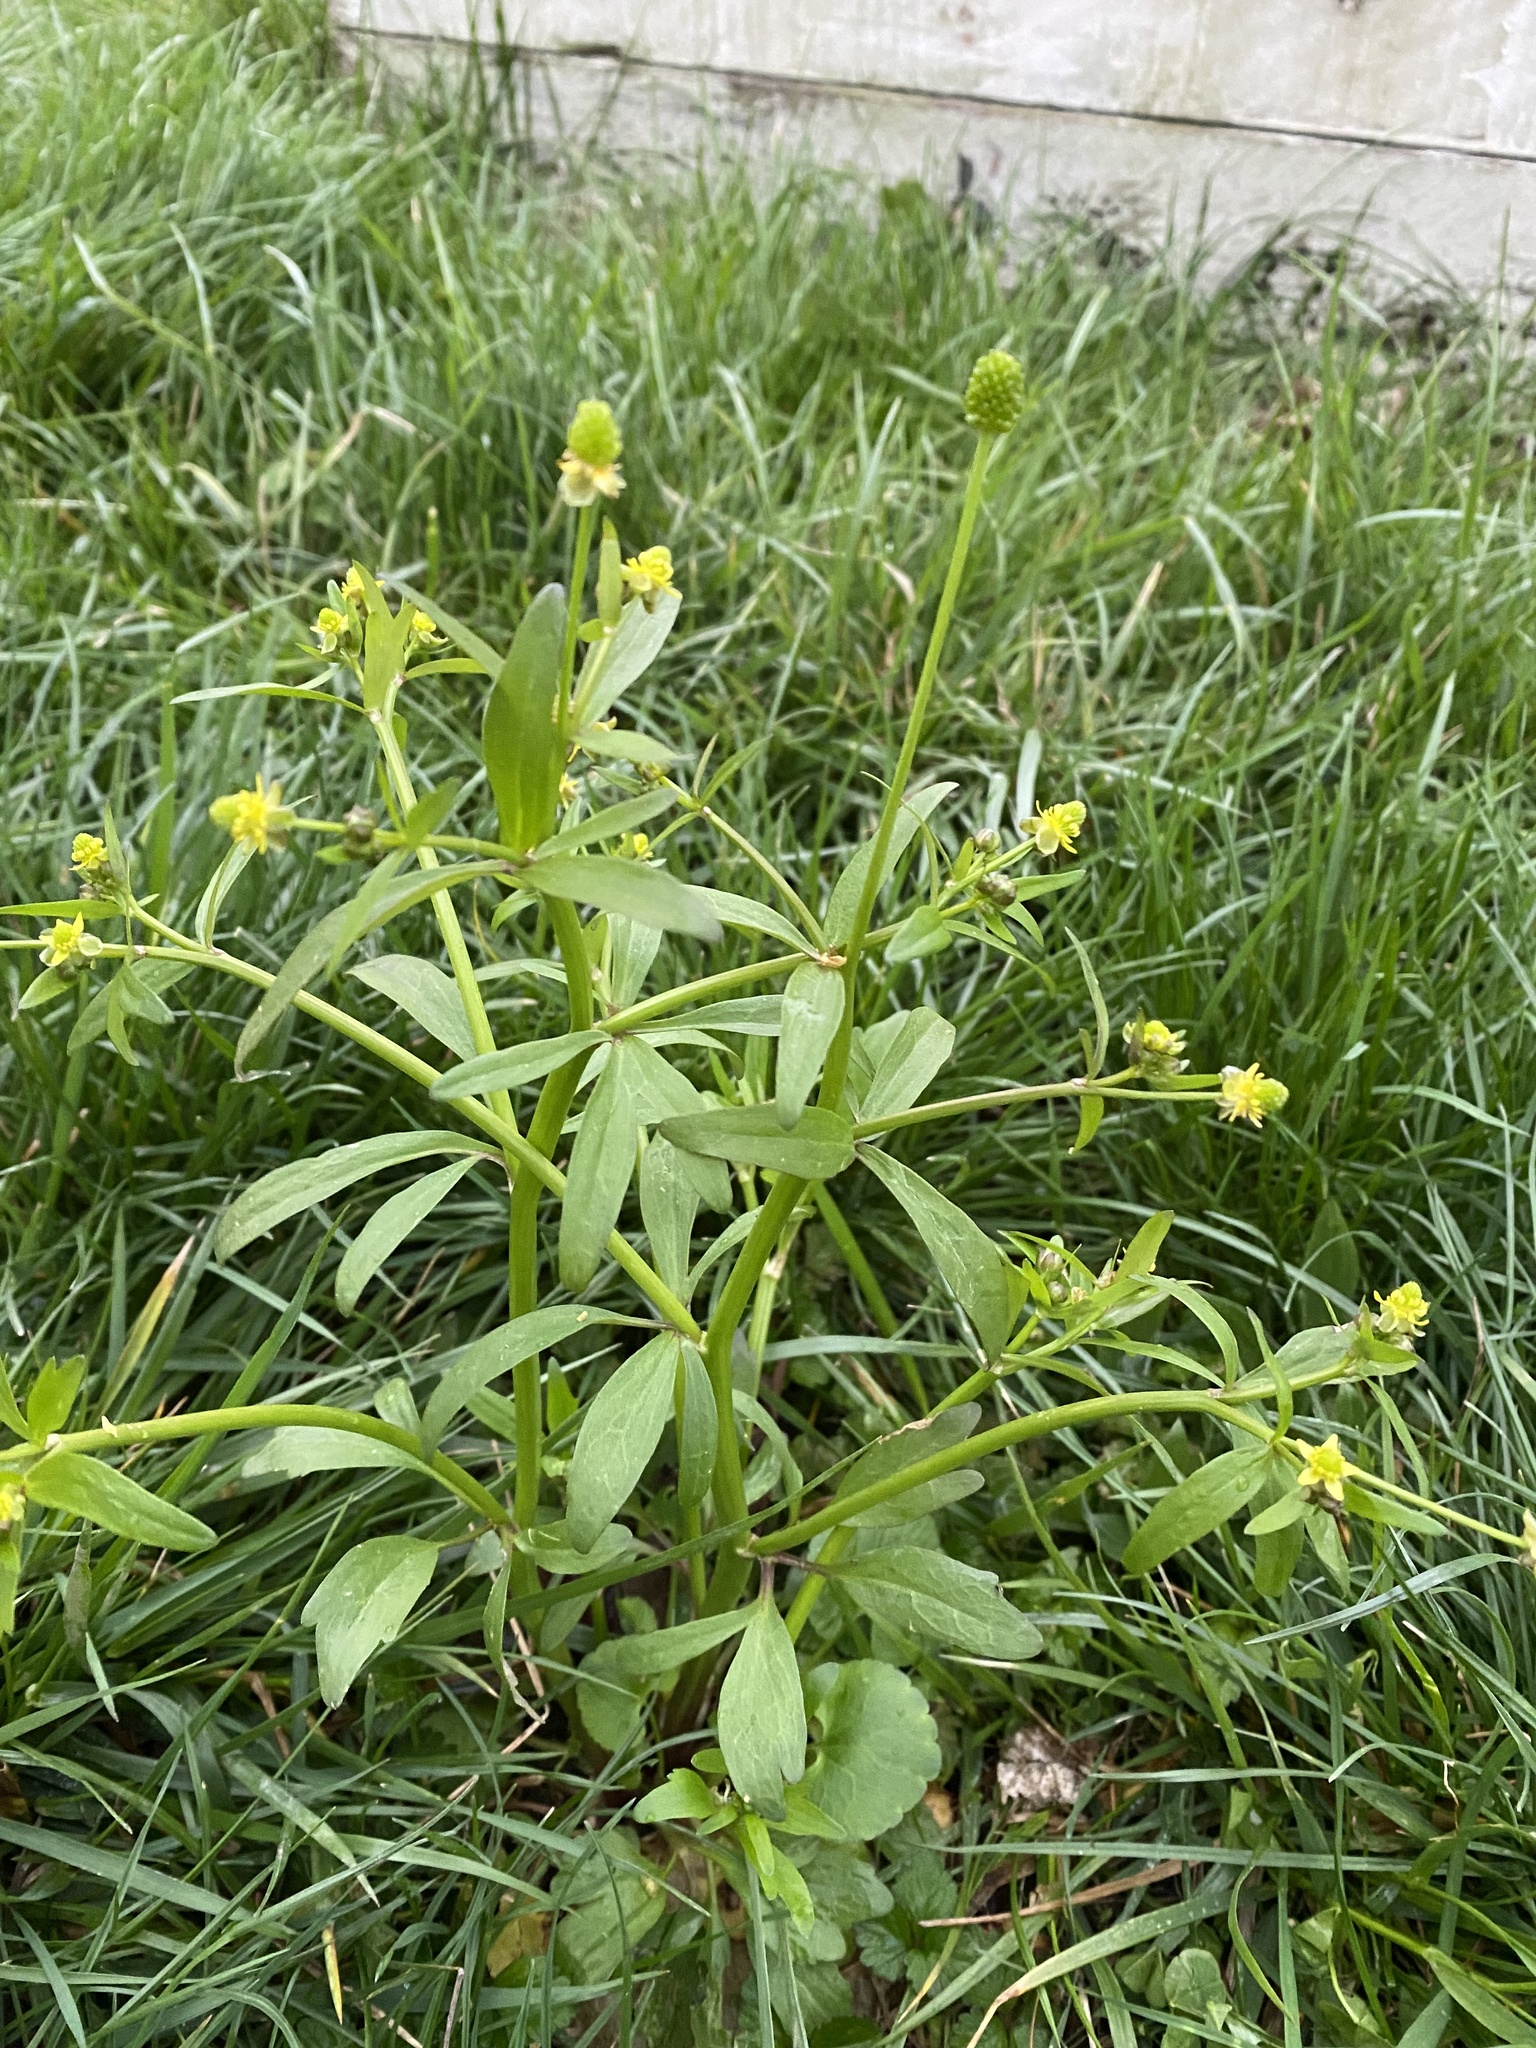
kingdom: Plantae
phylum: Tracheophyta
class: Magnoliopsida
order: Ranunculales
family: Ranunculaceae
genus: Ranunculus
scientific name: Ranunculus abortivus
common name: Early wood buttercup
